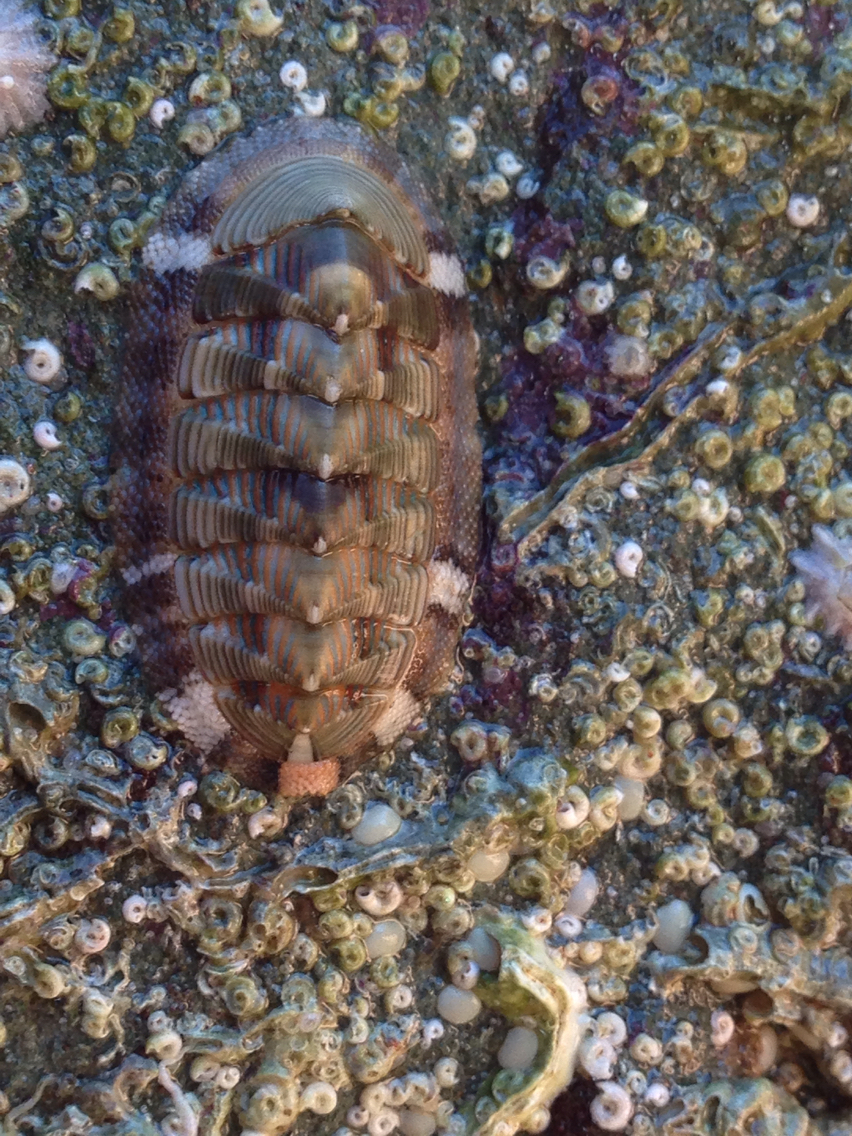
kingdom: Animalia
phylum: Mollusca
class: Polyplacophora
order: Chitonida
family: Chitonidae
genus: Rhyssoplax
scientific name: Rhyssoplax diaphora
